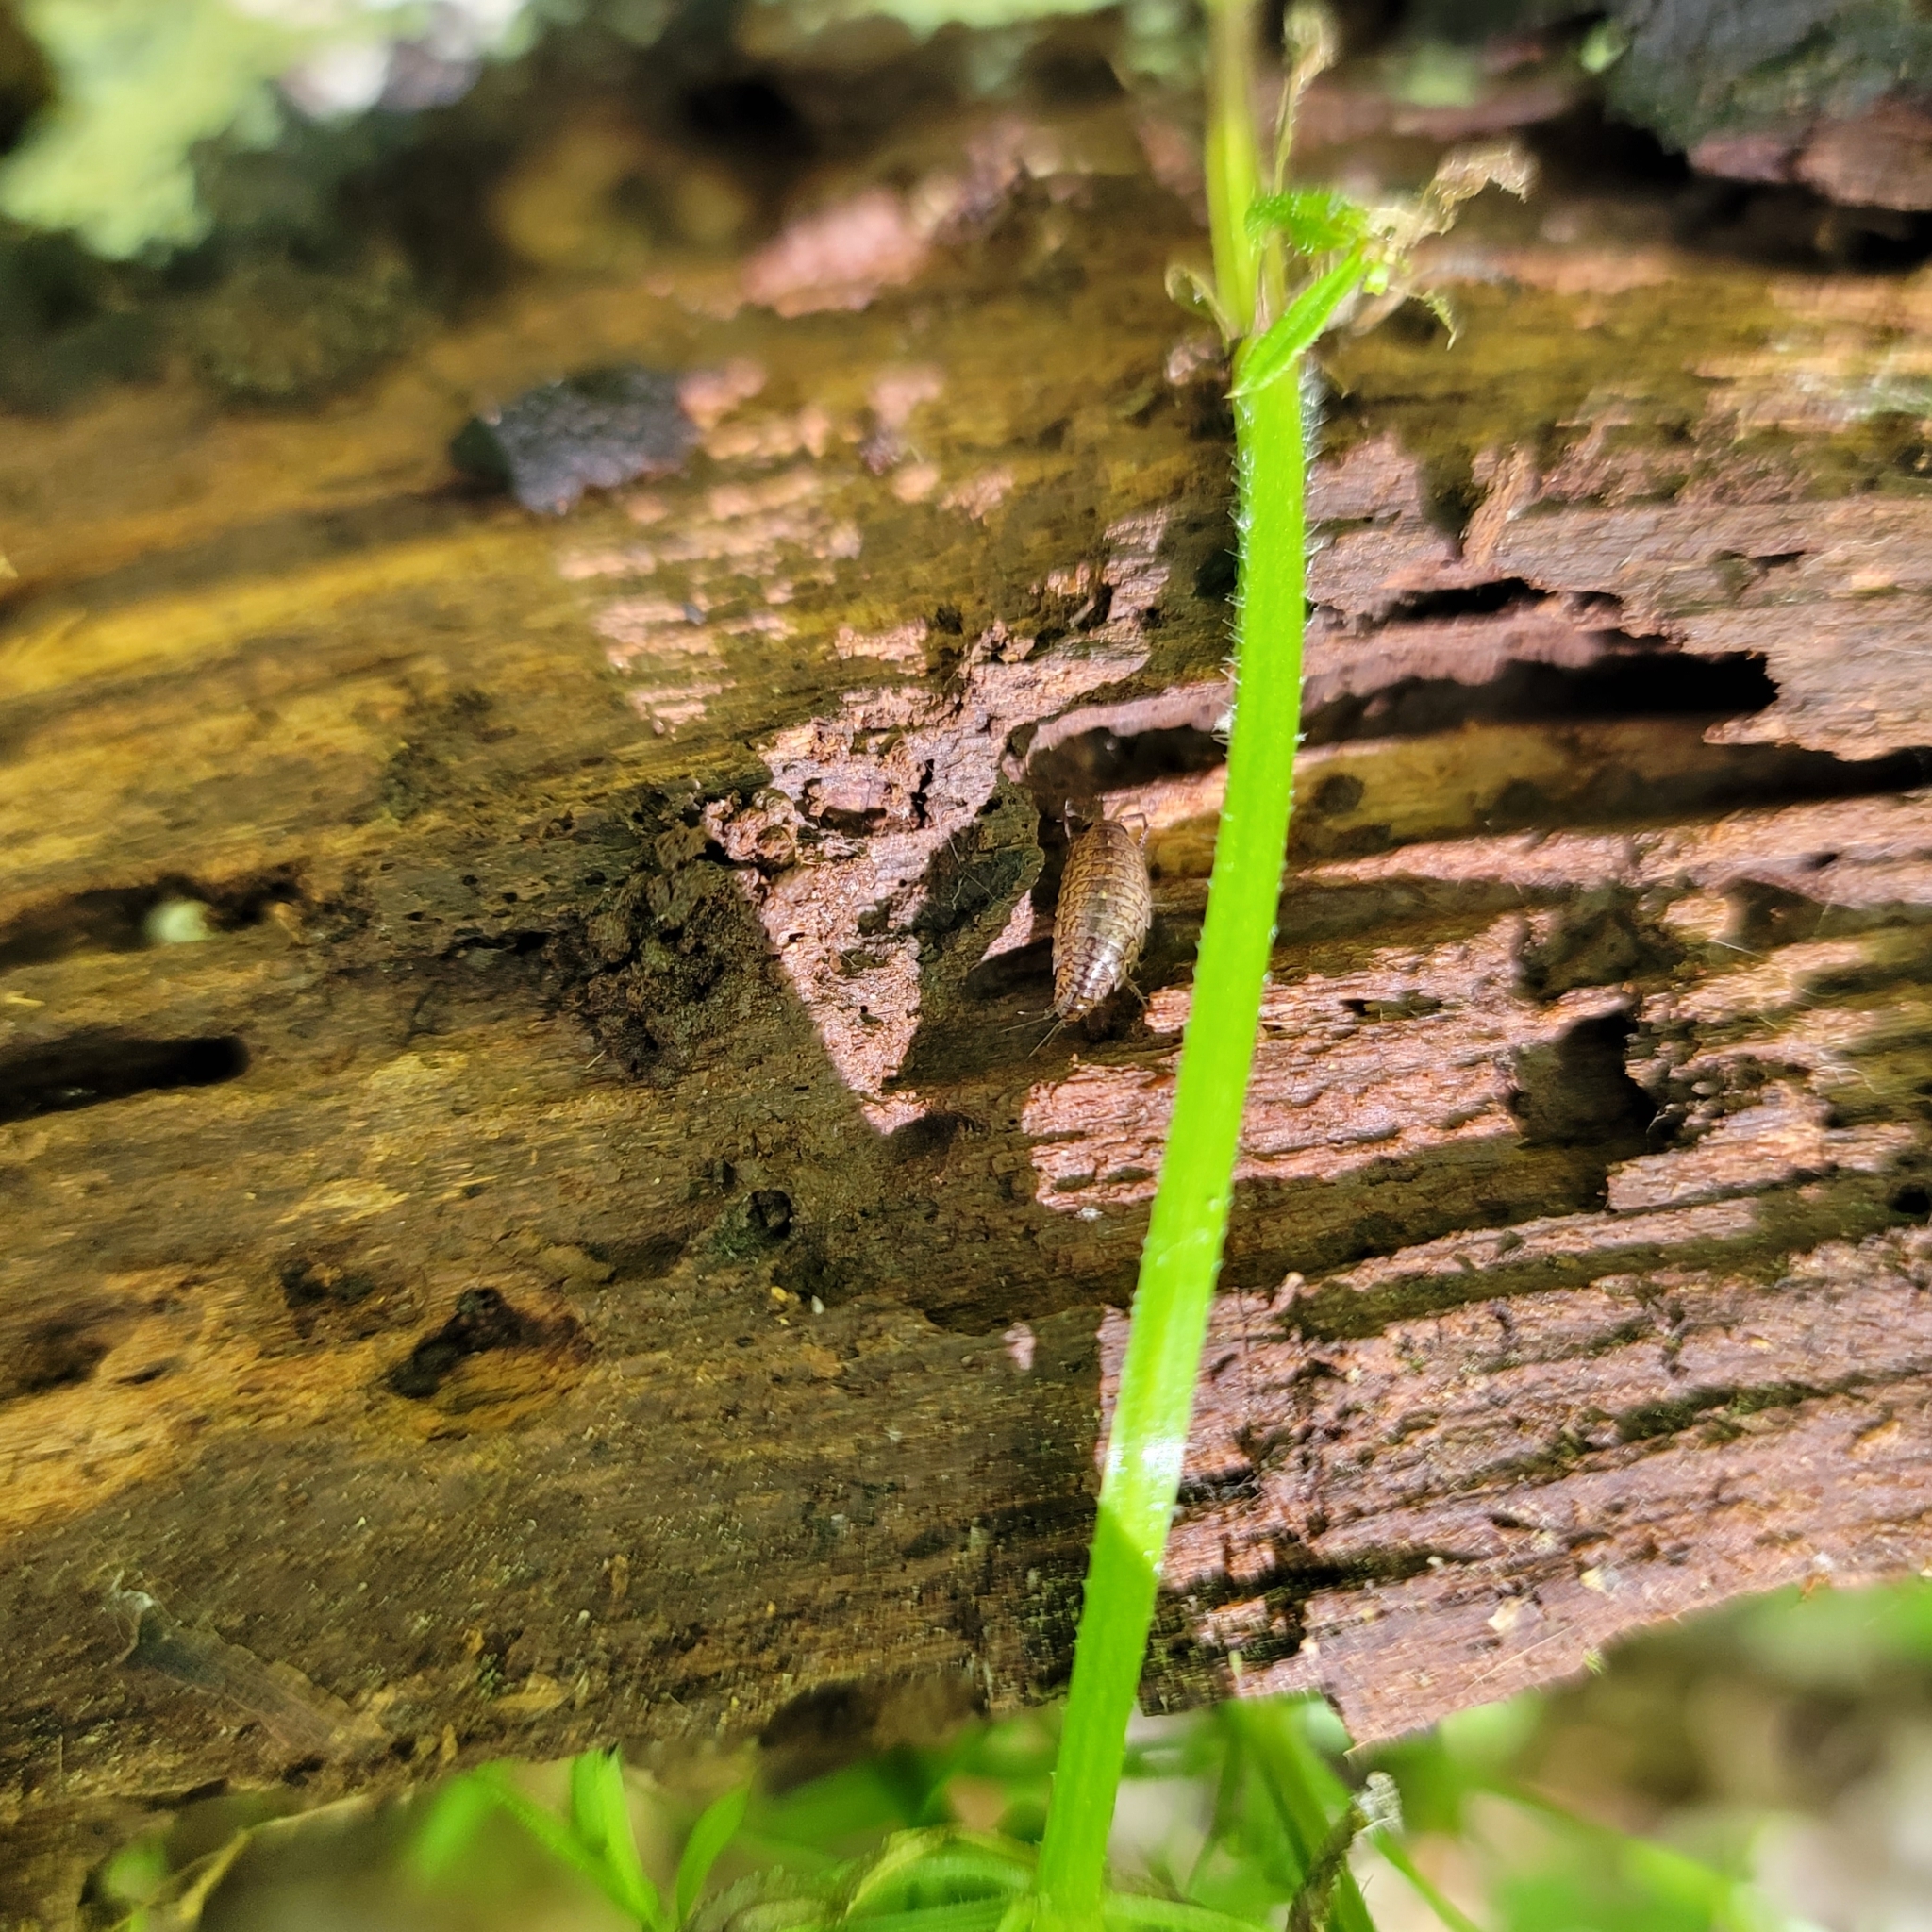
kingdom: Animalia
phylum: Arthropoda
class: Malacostraca
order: Isopoda
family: Ligiidae
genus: Ligidium
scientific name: Ligidium elrodii
